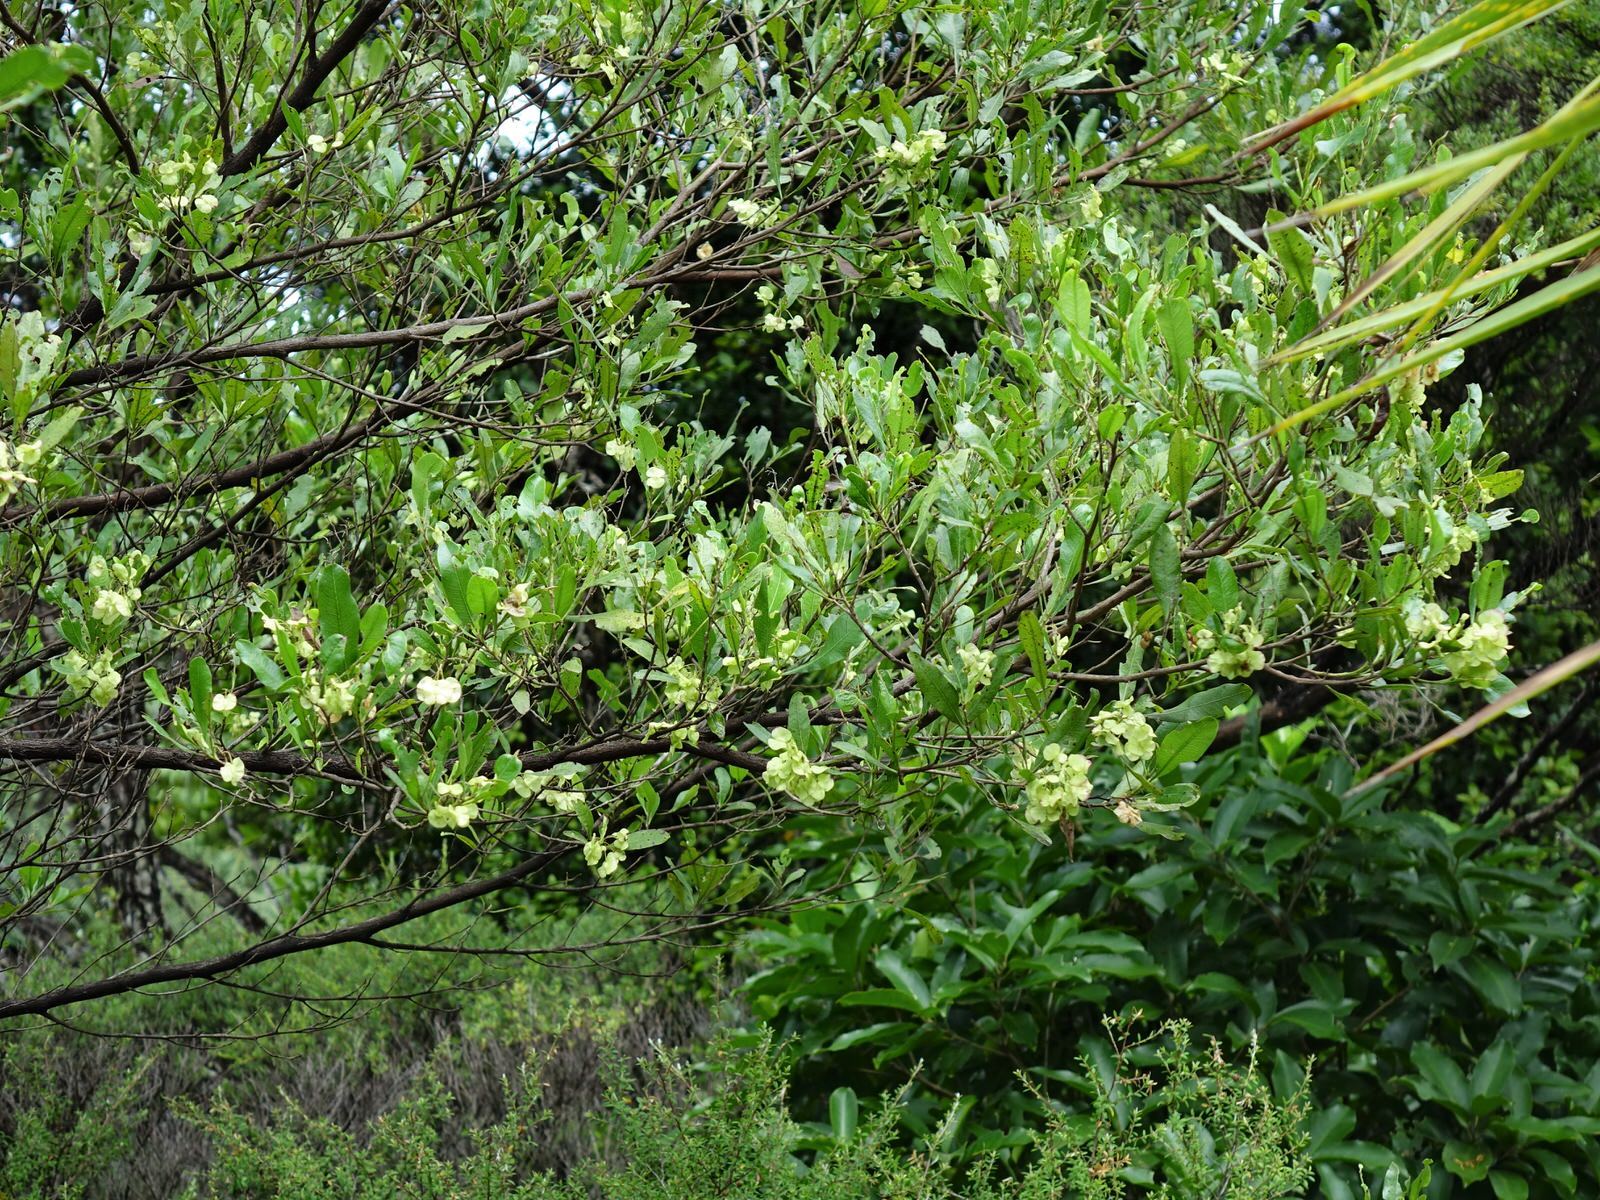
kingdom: Plantae
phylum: Tracheophyta
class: Magnoliopsida
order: Sapindales
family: Sapindaceae
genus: Dodonaea
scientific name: Dodonaea viscosa
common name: Hopbush
